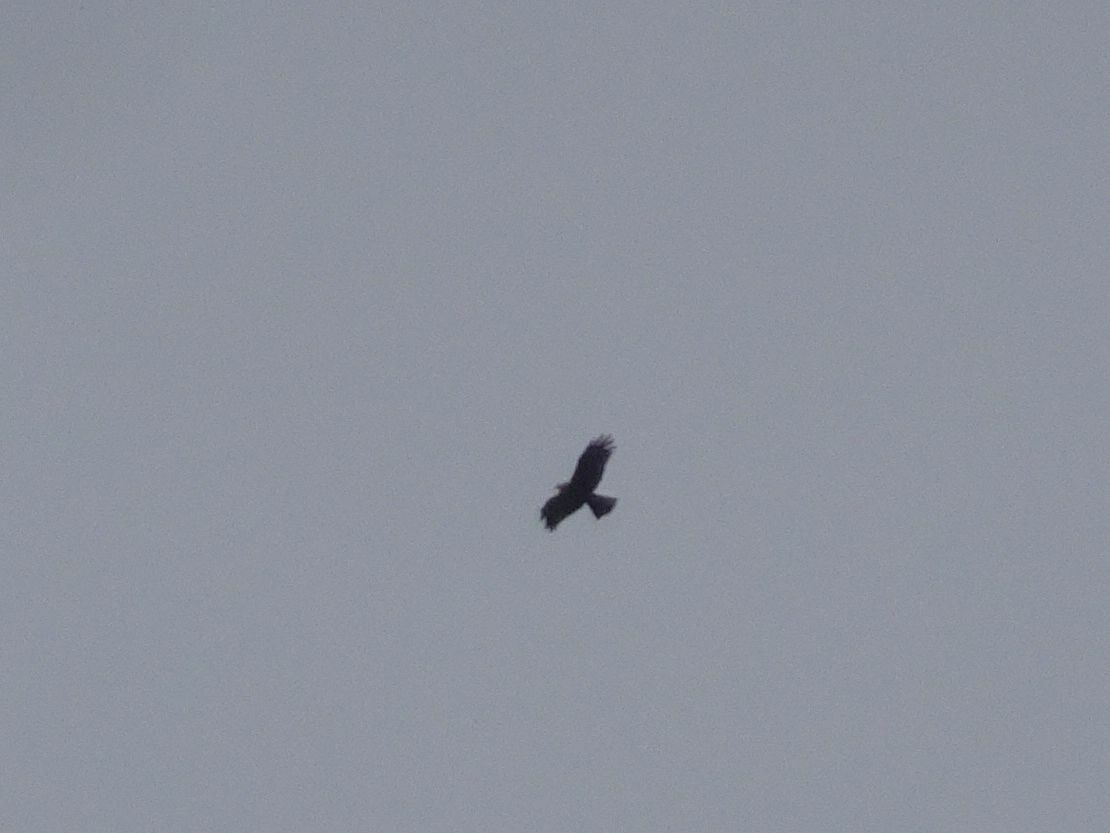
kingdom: Animalia
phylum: Chordata
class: Aves
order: Accipitriformes
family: Accipitridae
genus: Milvus
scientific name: Milvus migrans
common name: Black kite
